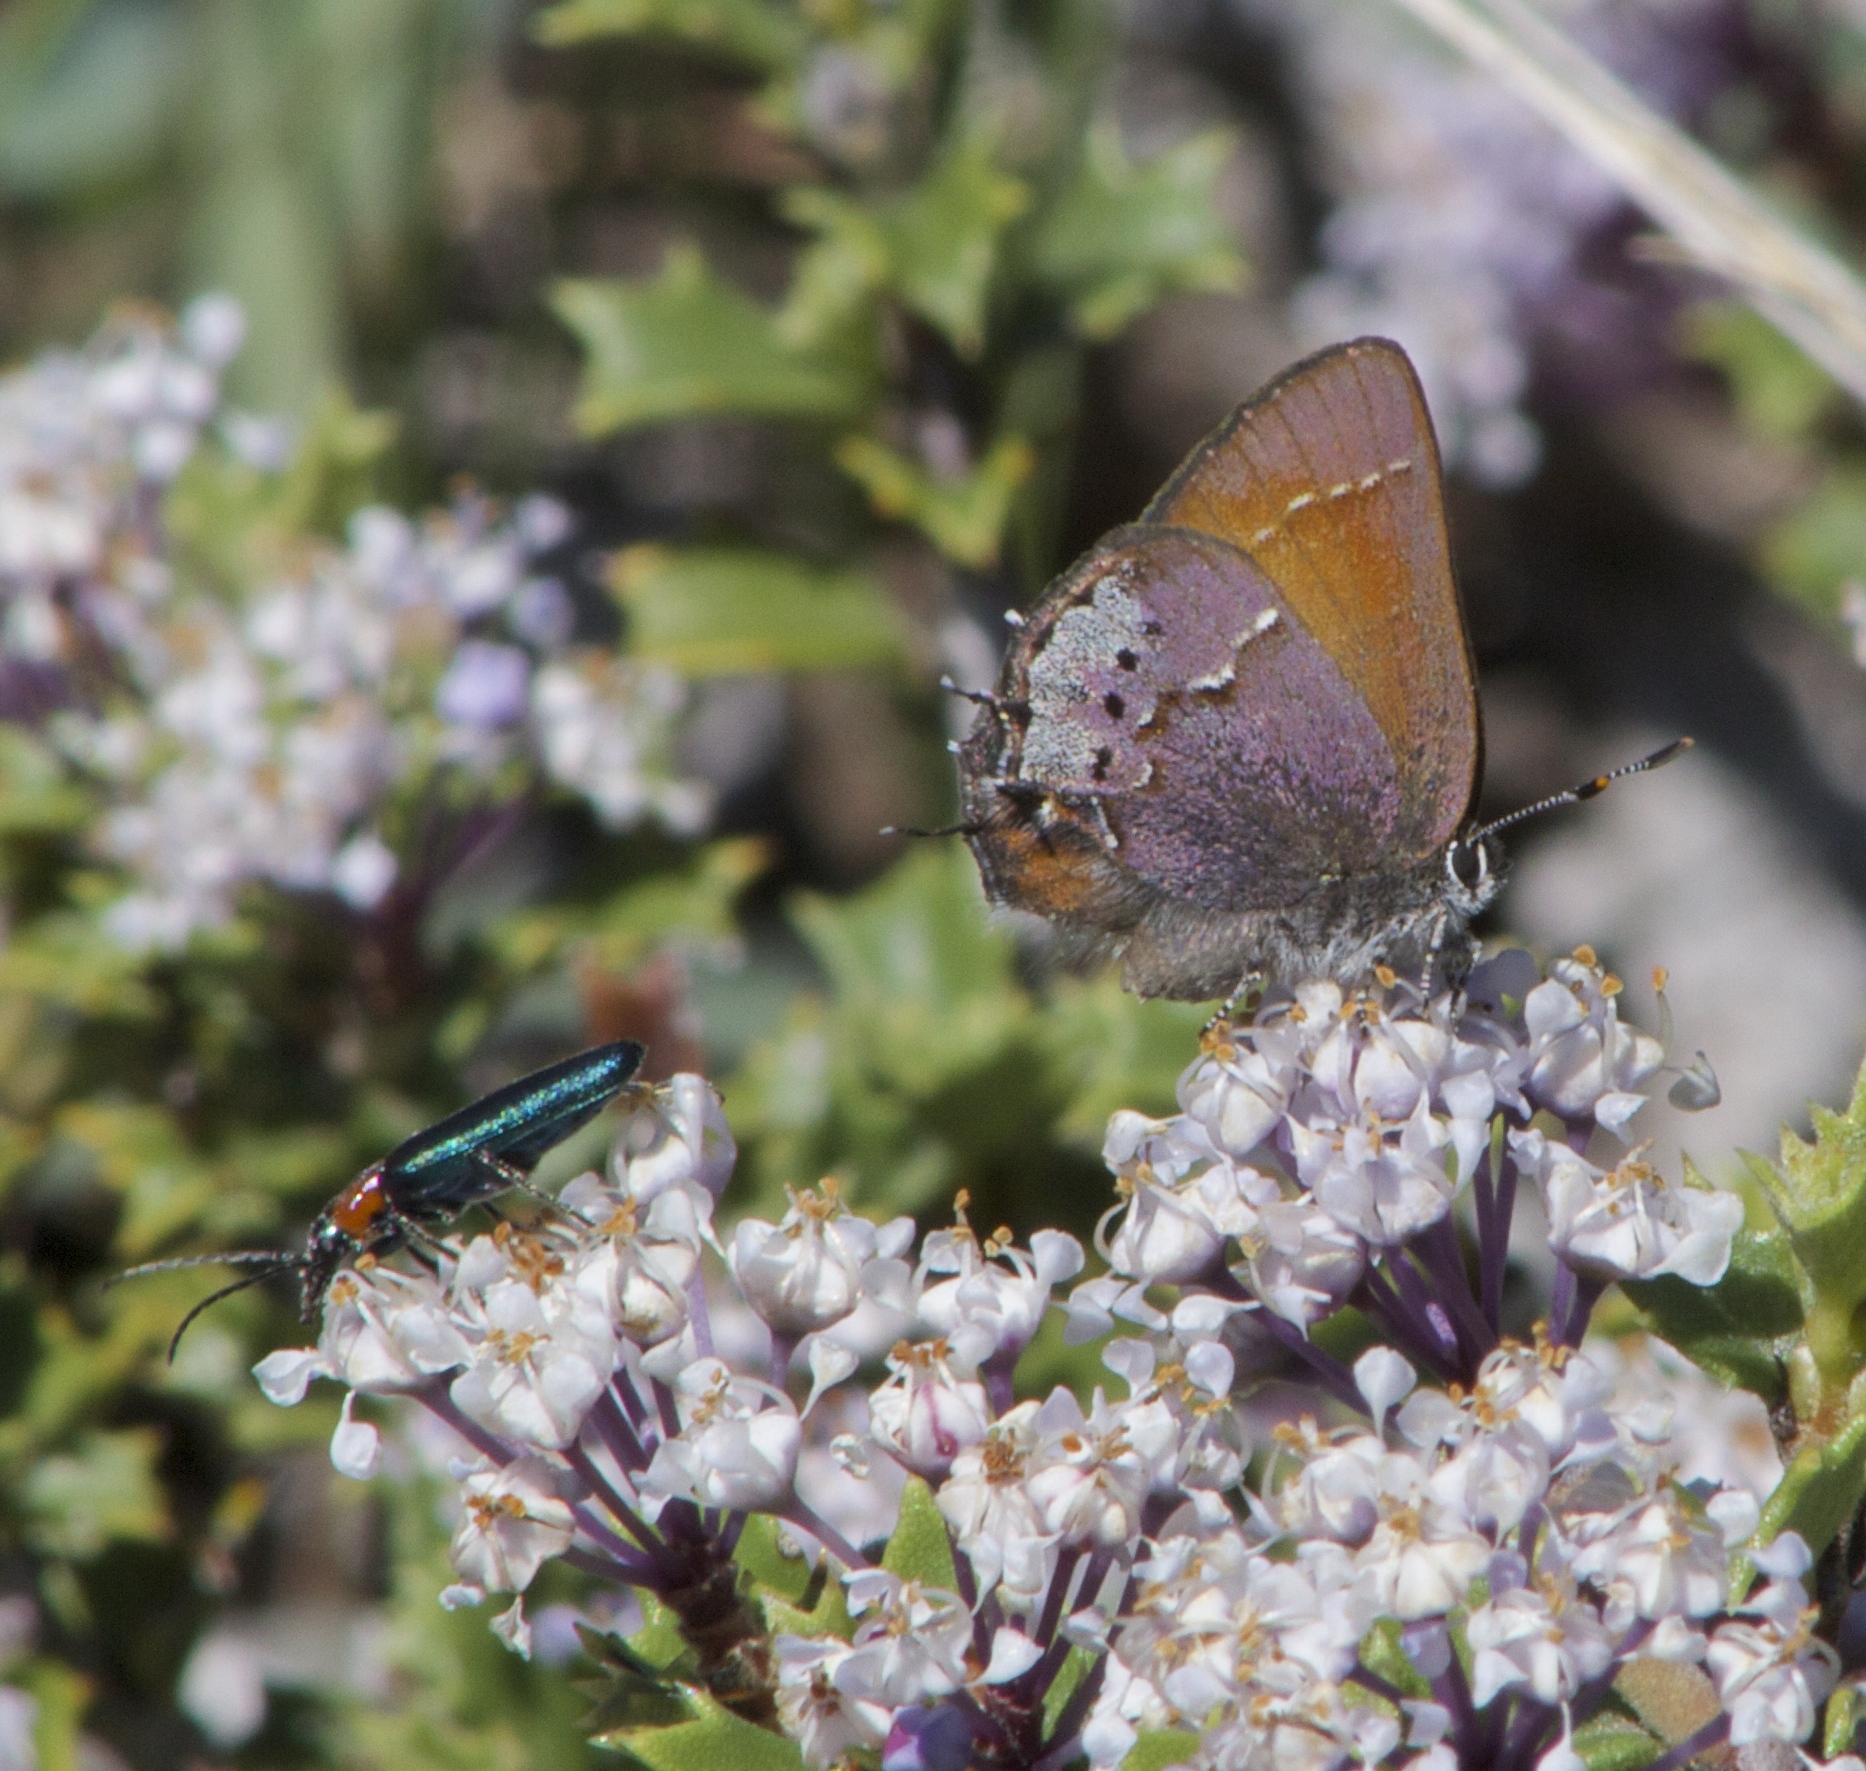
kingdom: Animalia
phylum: Arthropoda
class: Insecta
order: Lepidoptera
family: Lycaenidae
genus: Callophrys
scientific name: Callophrys muiri
